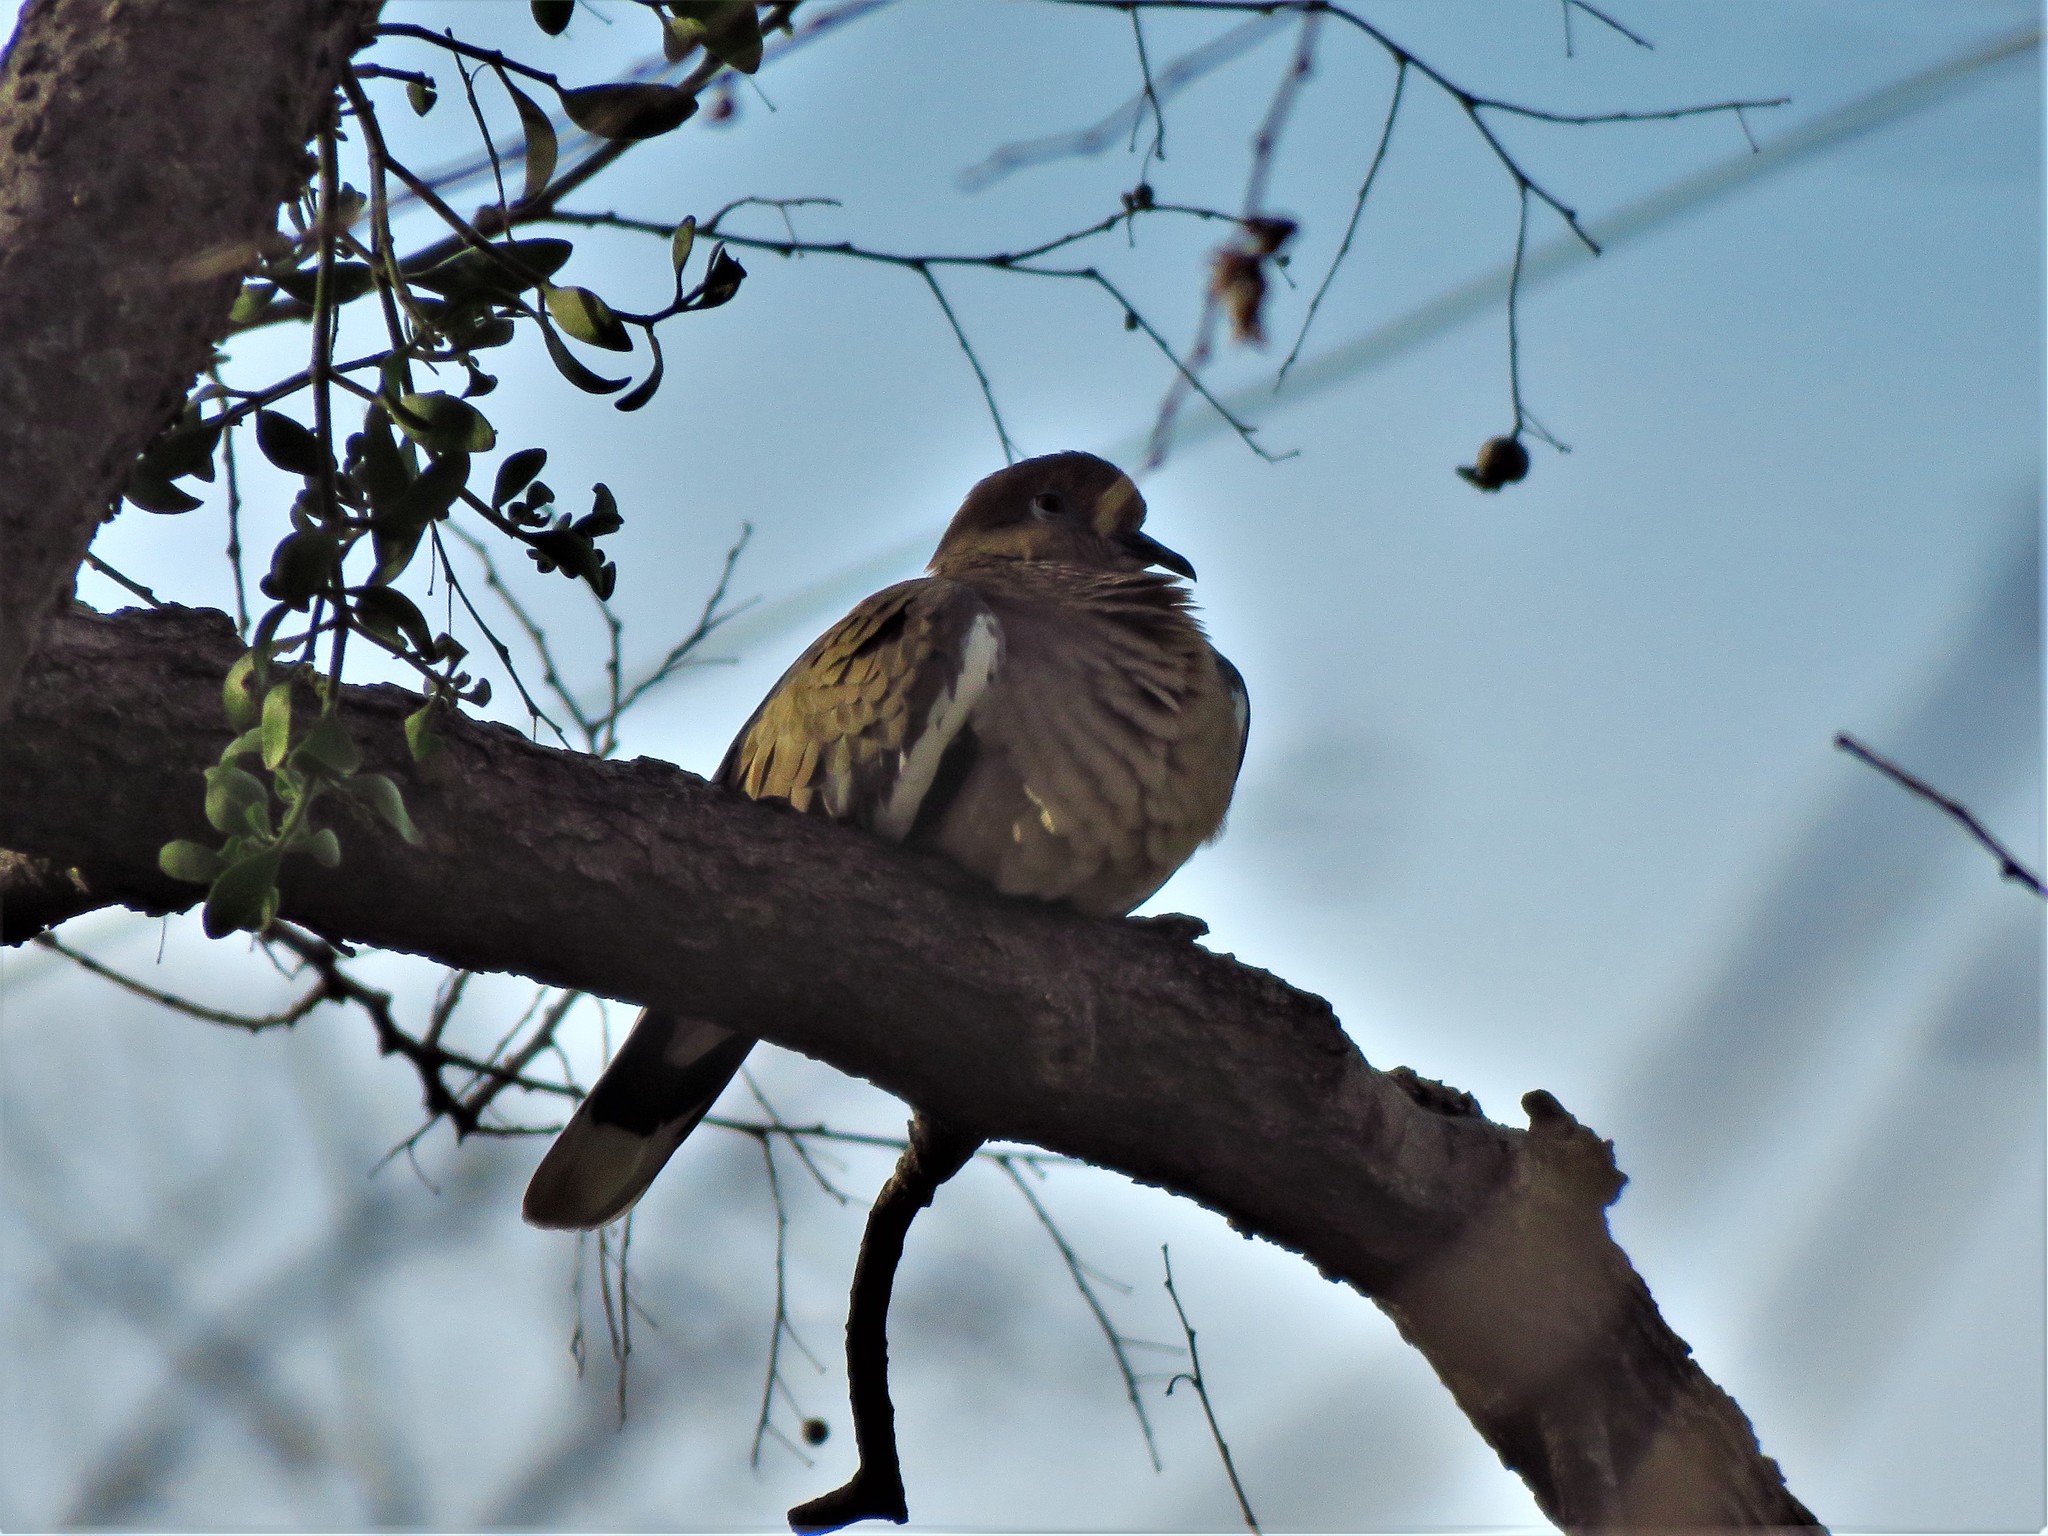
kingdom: Animalia
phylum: Chordata
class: Aves
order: Columbiformes
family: Columbidae
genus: Zenaida
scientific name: Zenaida asiatica
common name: White-winged dove
